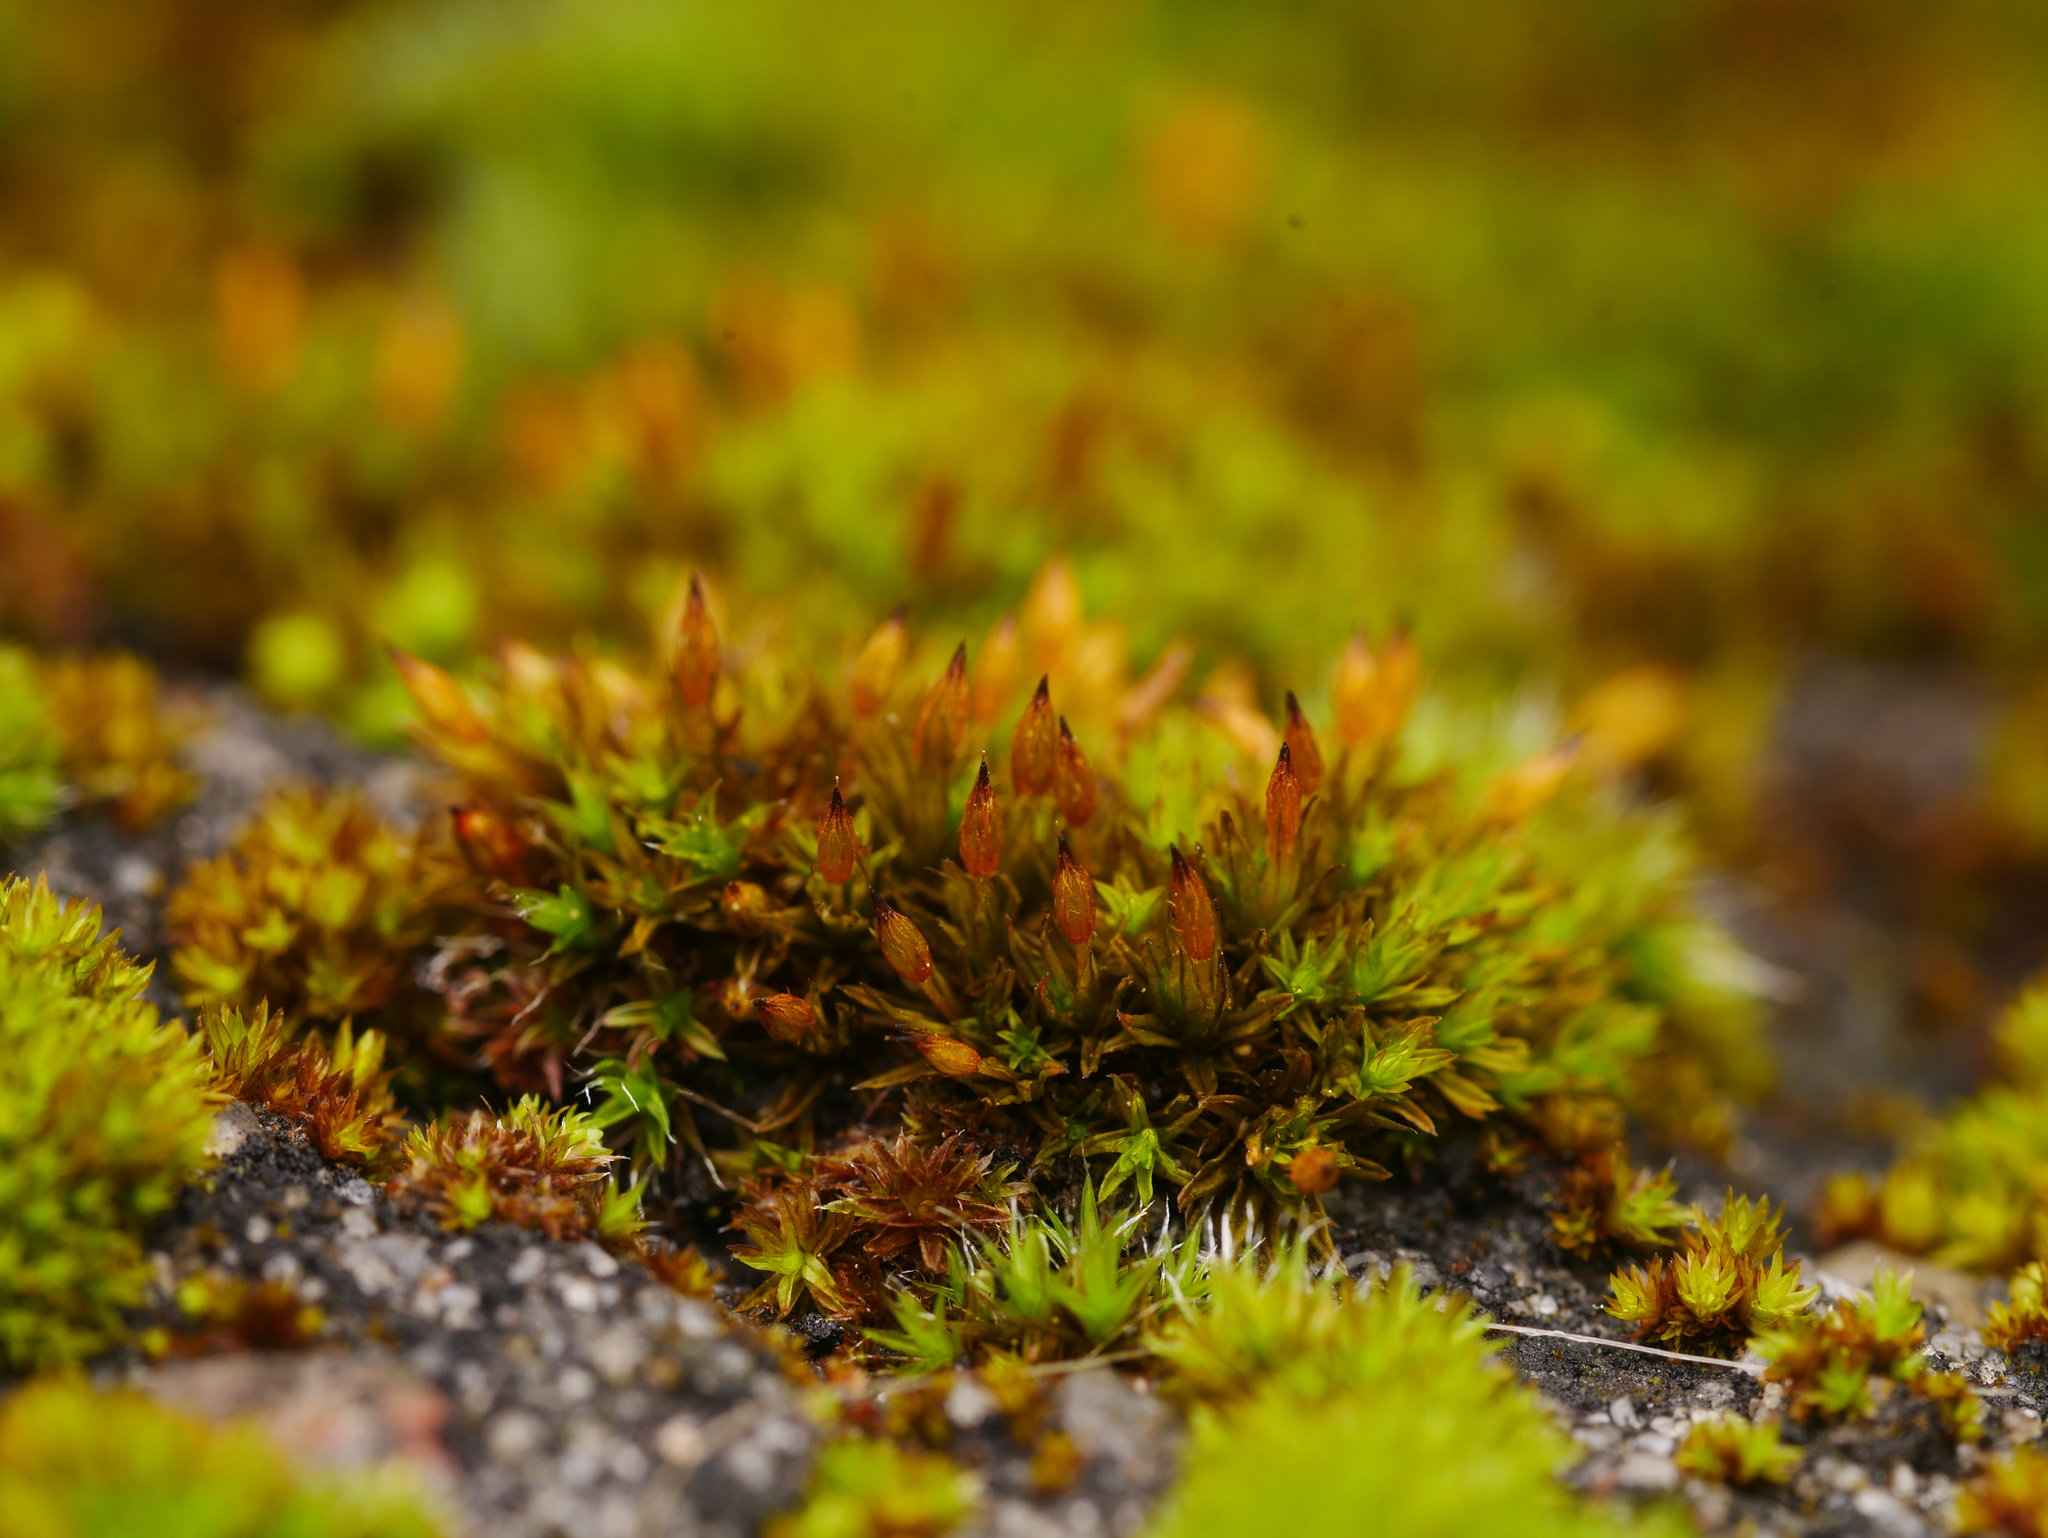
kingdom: Plantae
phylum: Bryophyta
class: Bryopsida
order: Orthotrichales
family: Orthotrichaceae
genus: Orthotrichum
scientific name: Orthotrichum anomalum
